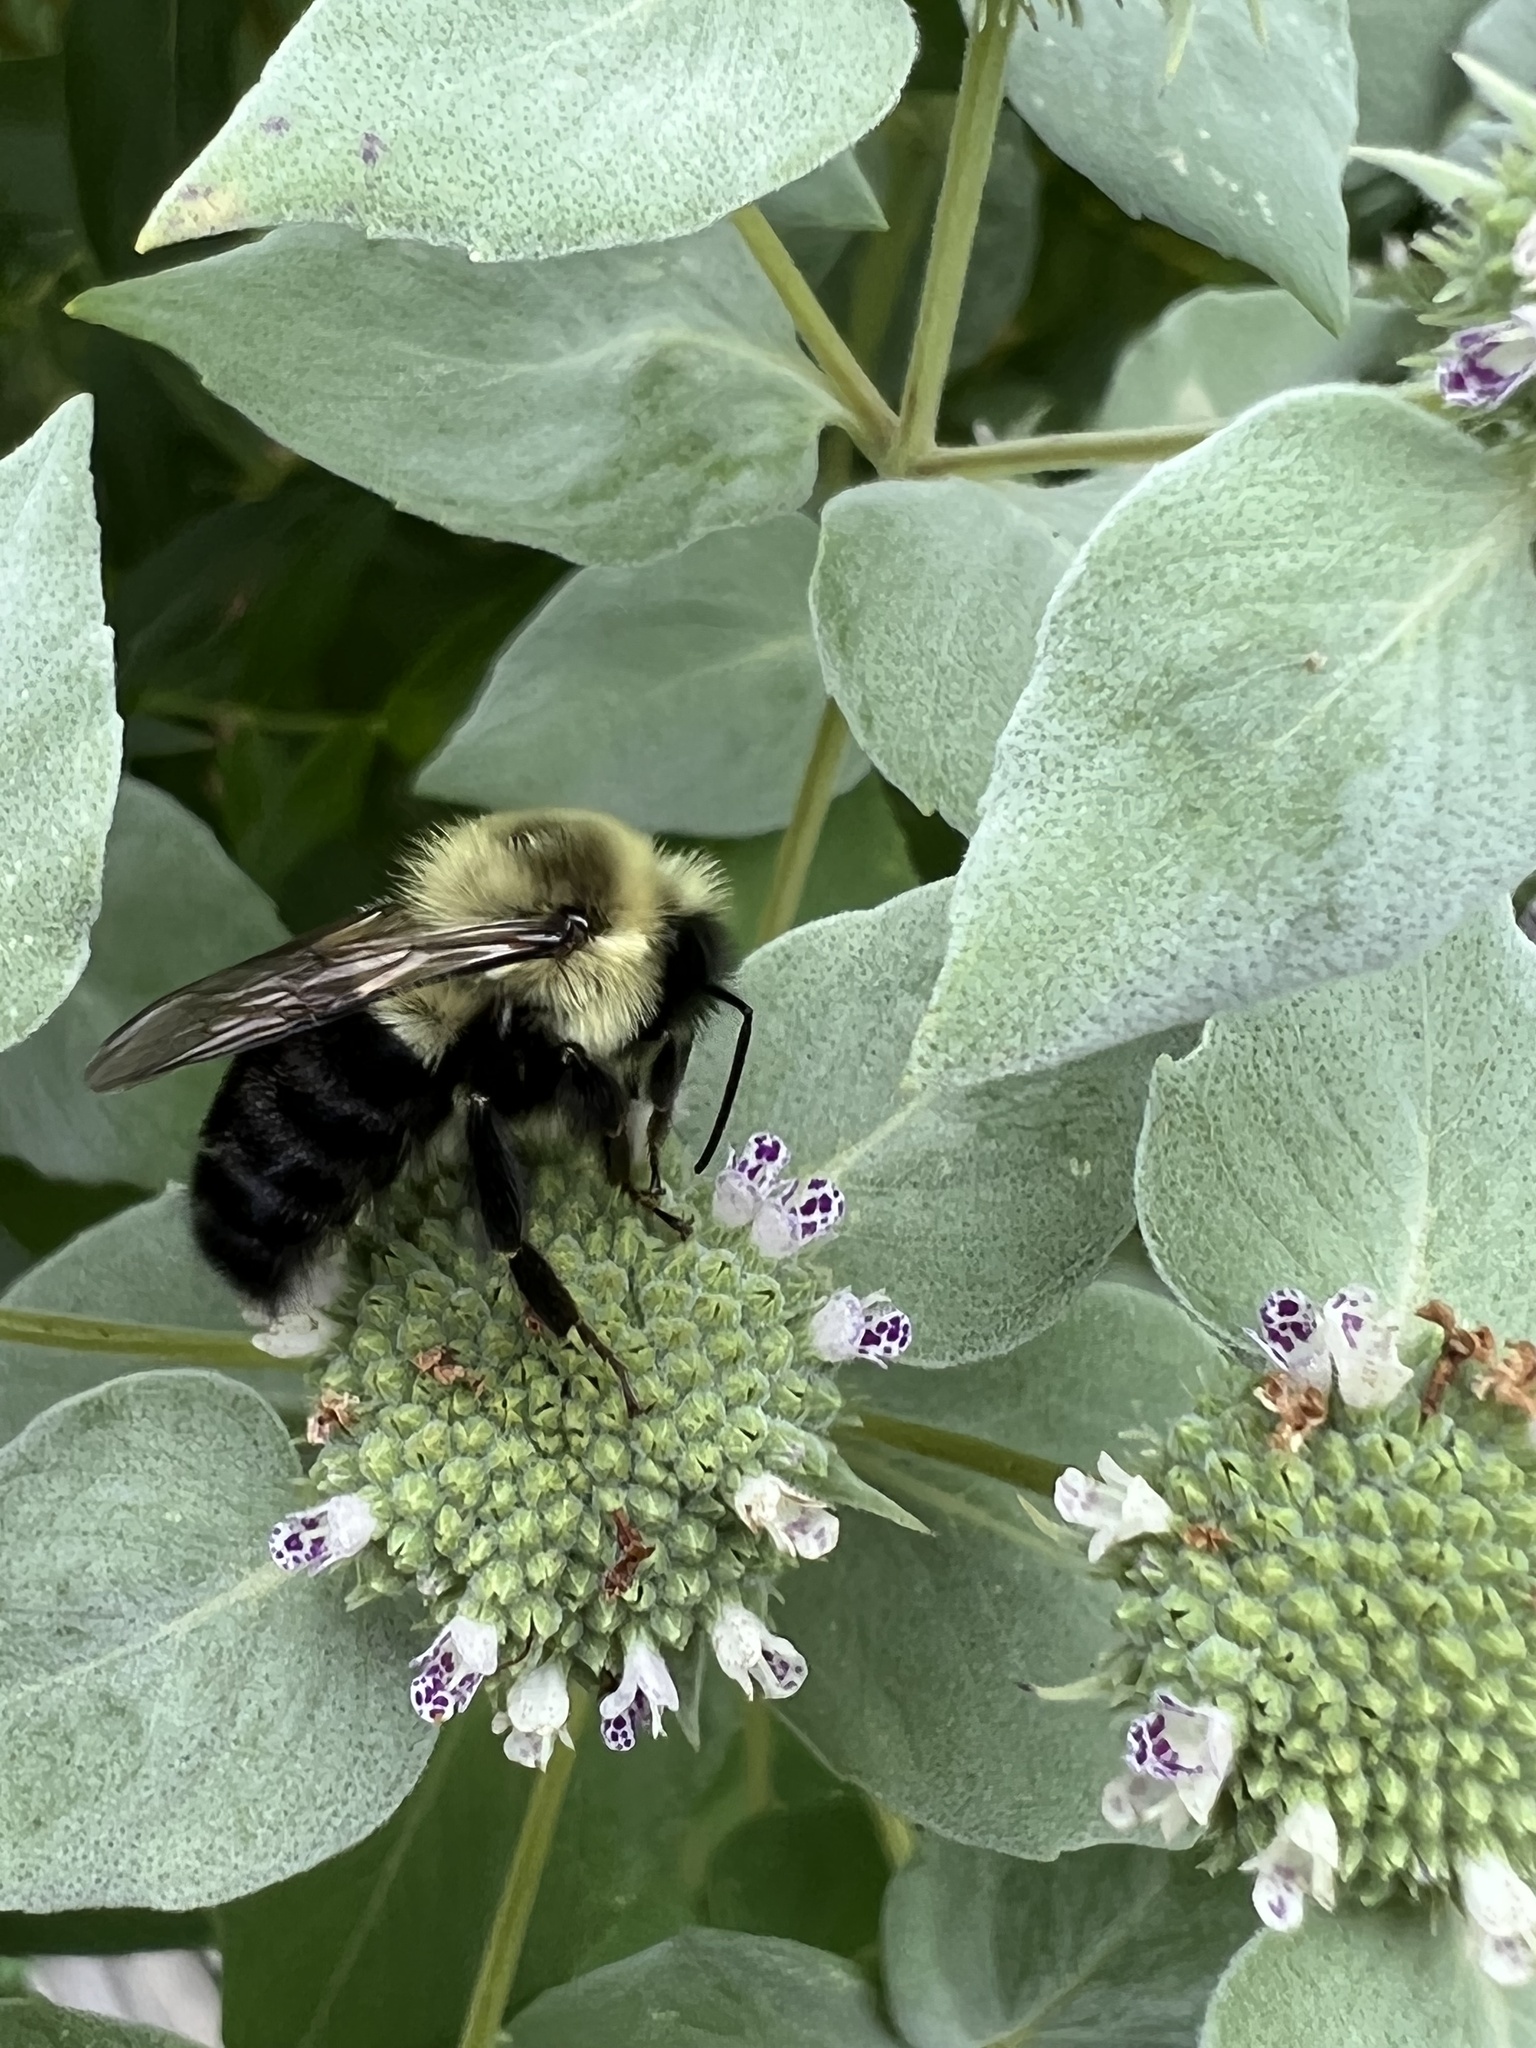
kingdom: Animalia
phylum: Arthropoda
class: Insecta
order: Hymenoptera
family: Apidae
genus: Bombus
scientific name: Bombus impatiens
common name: Common eastern bumble bee
